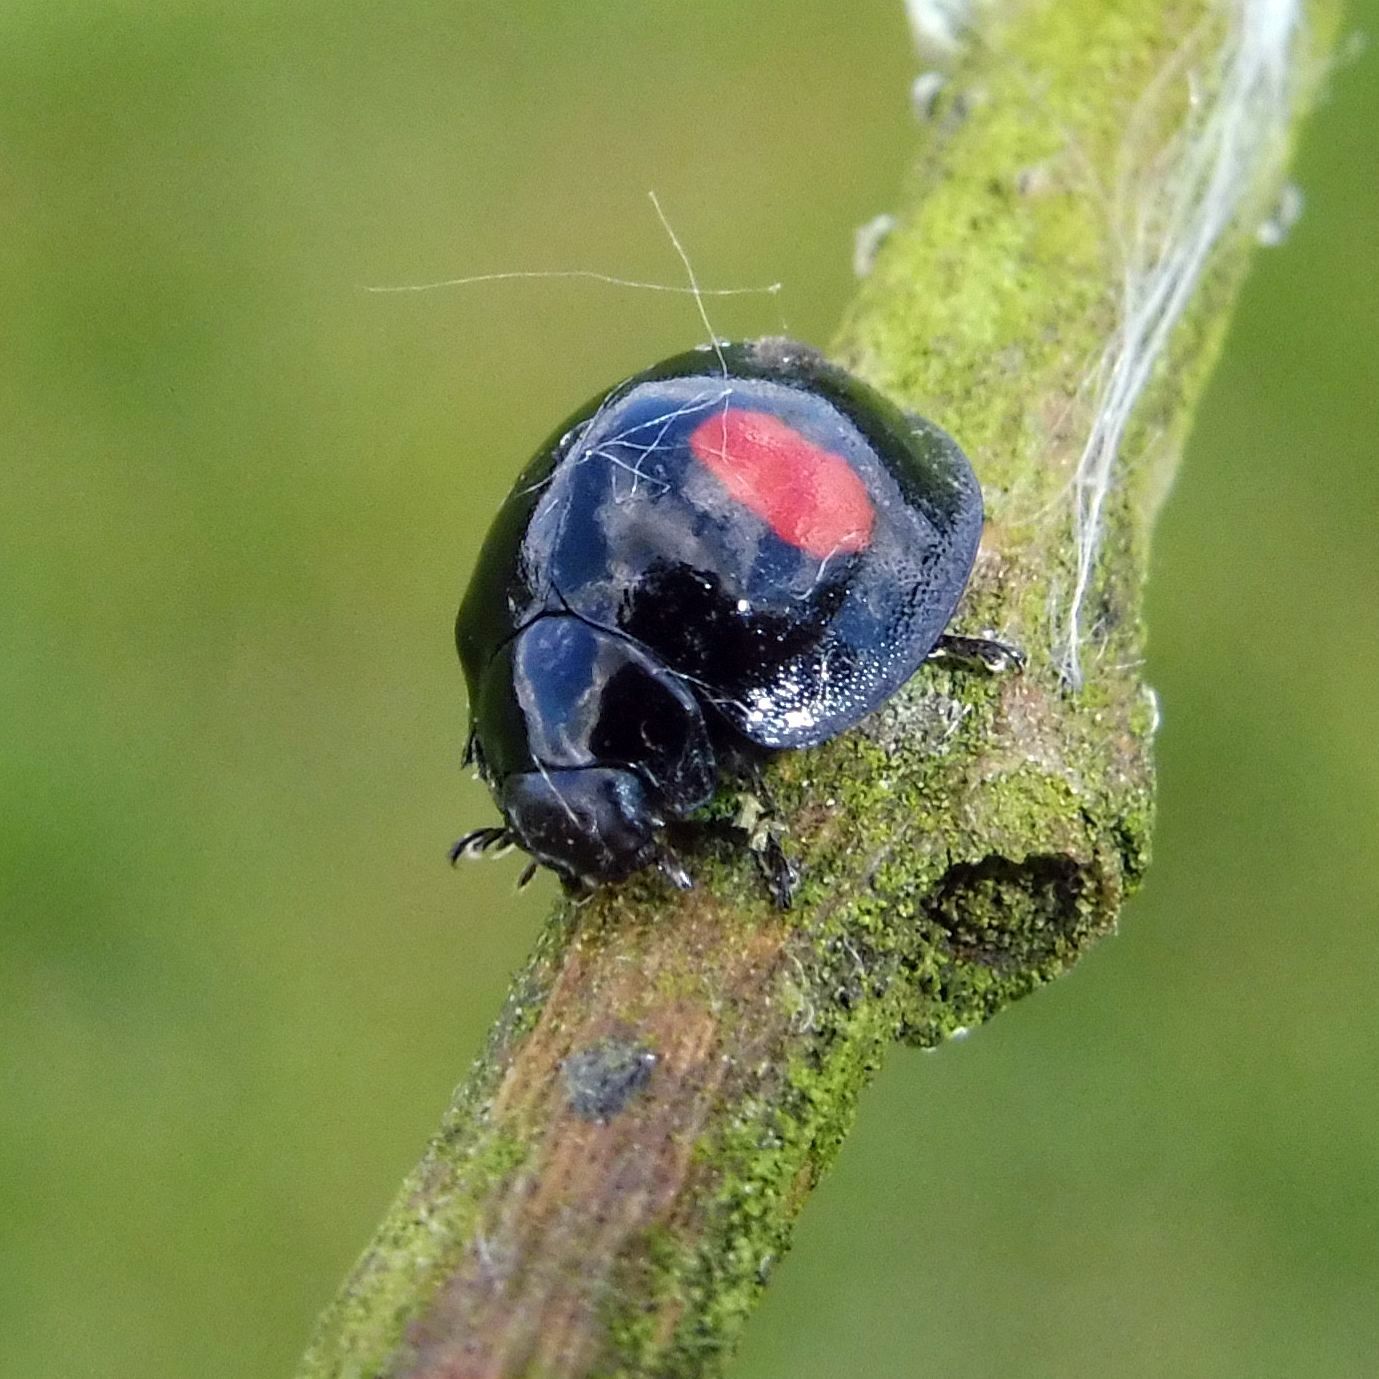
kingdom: Animalia
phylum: Arthropoda
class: Insecta
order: Coleoptera
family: Coccinellidae
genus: Chilocorus
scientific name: Chilocorus renipustulatus
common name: Kidney-spot ladybird
